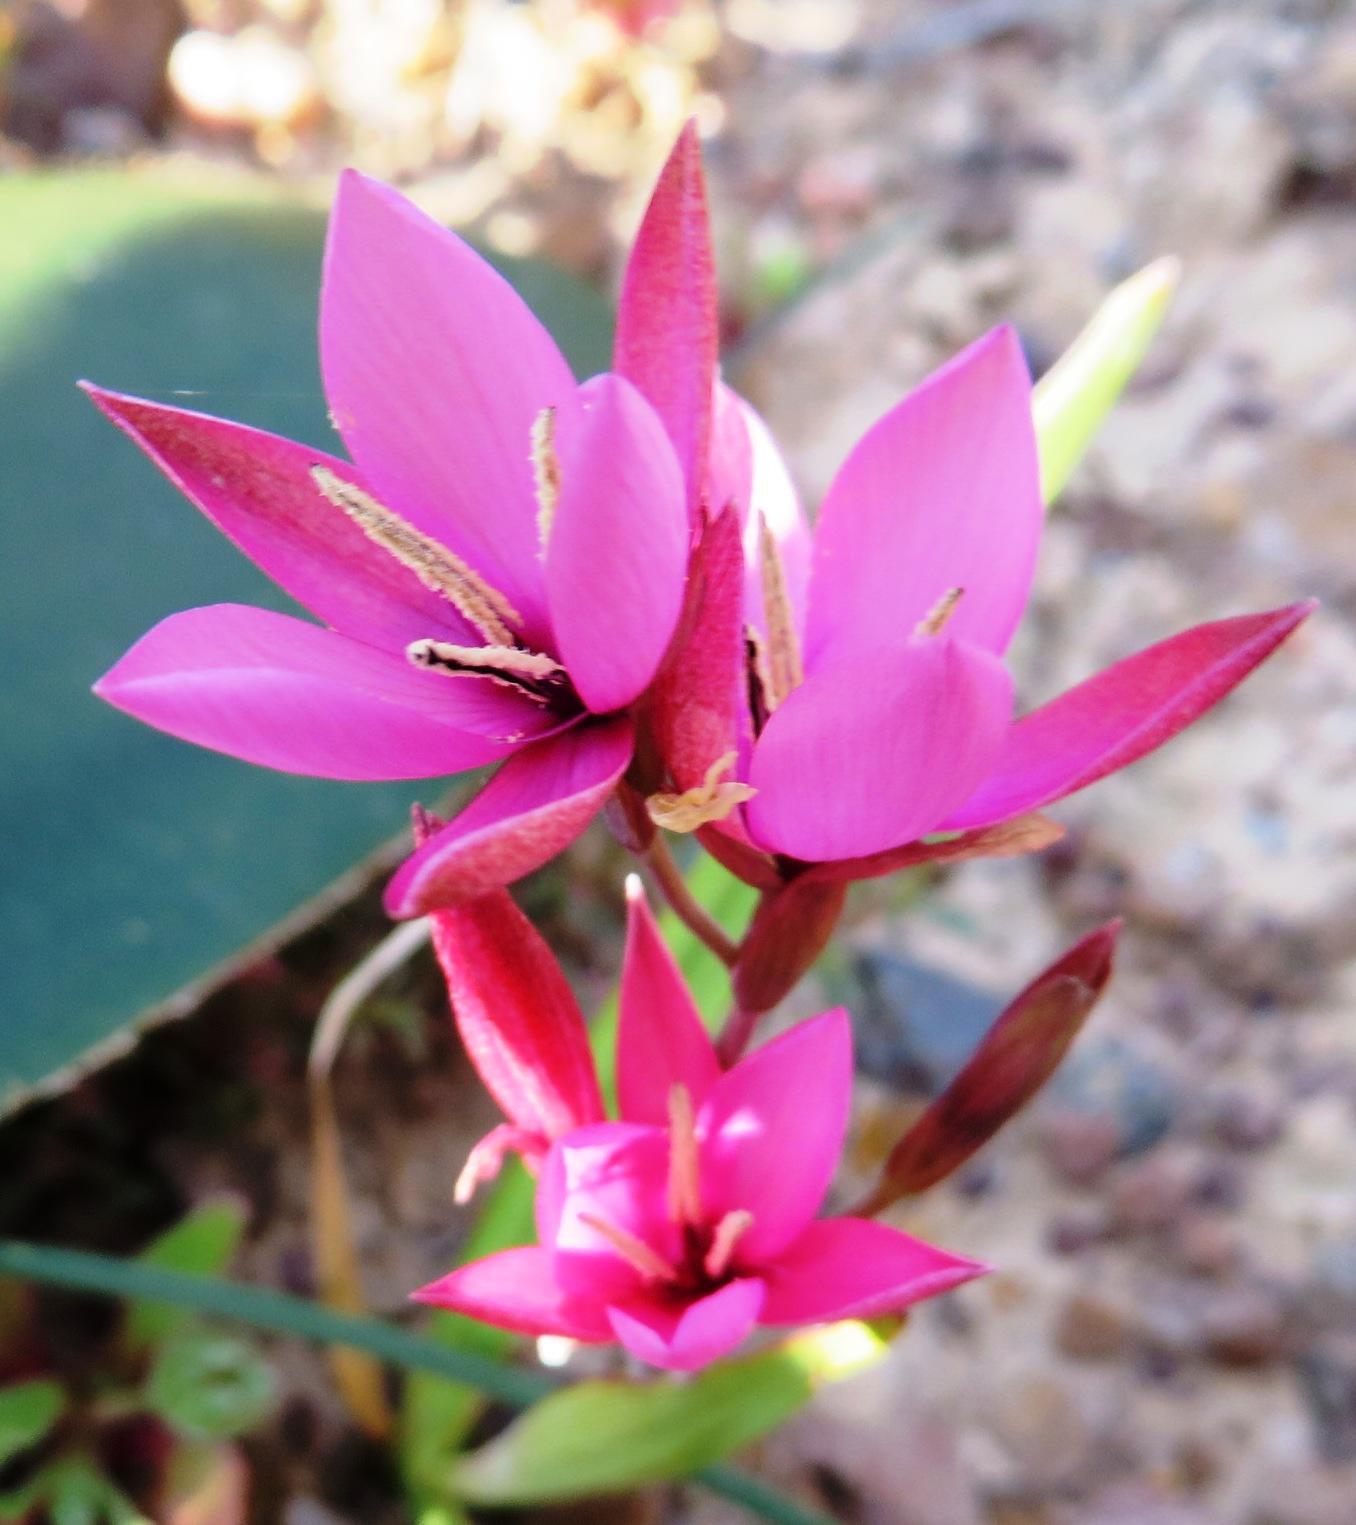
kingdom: Plantae
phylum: Tracheophyta
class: Liliopsida
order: Asparagales
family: Iridaceae
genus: Hesperantha
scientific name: Hesperantha pauciflora
